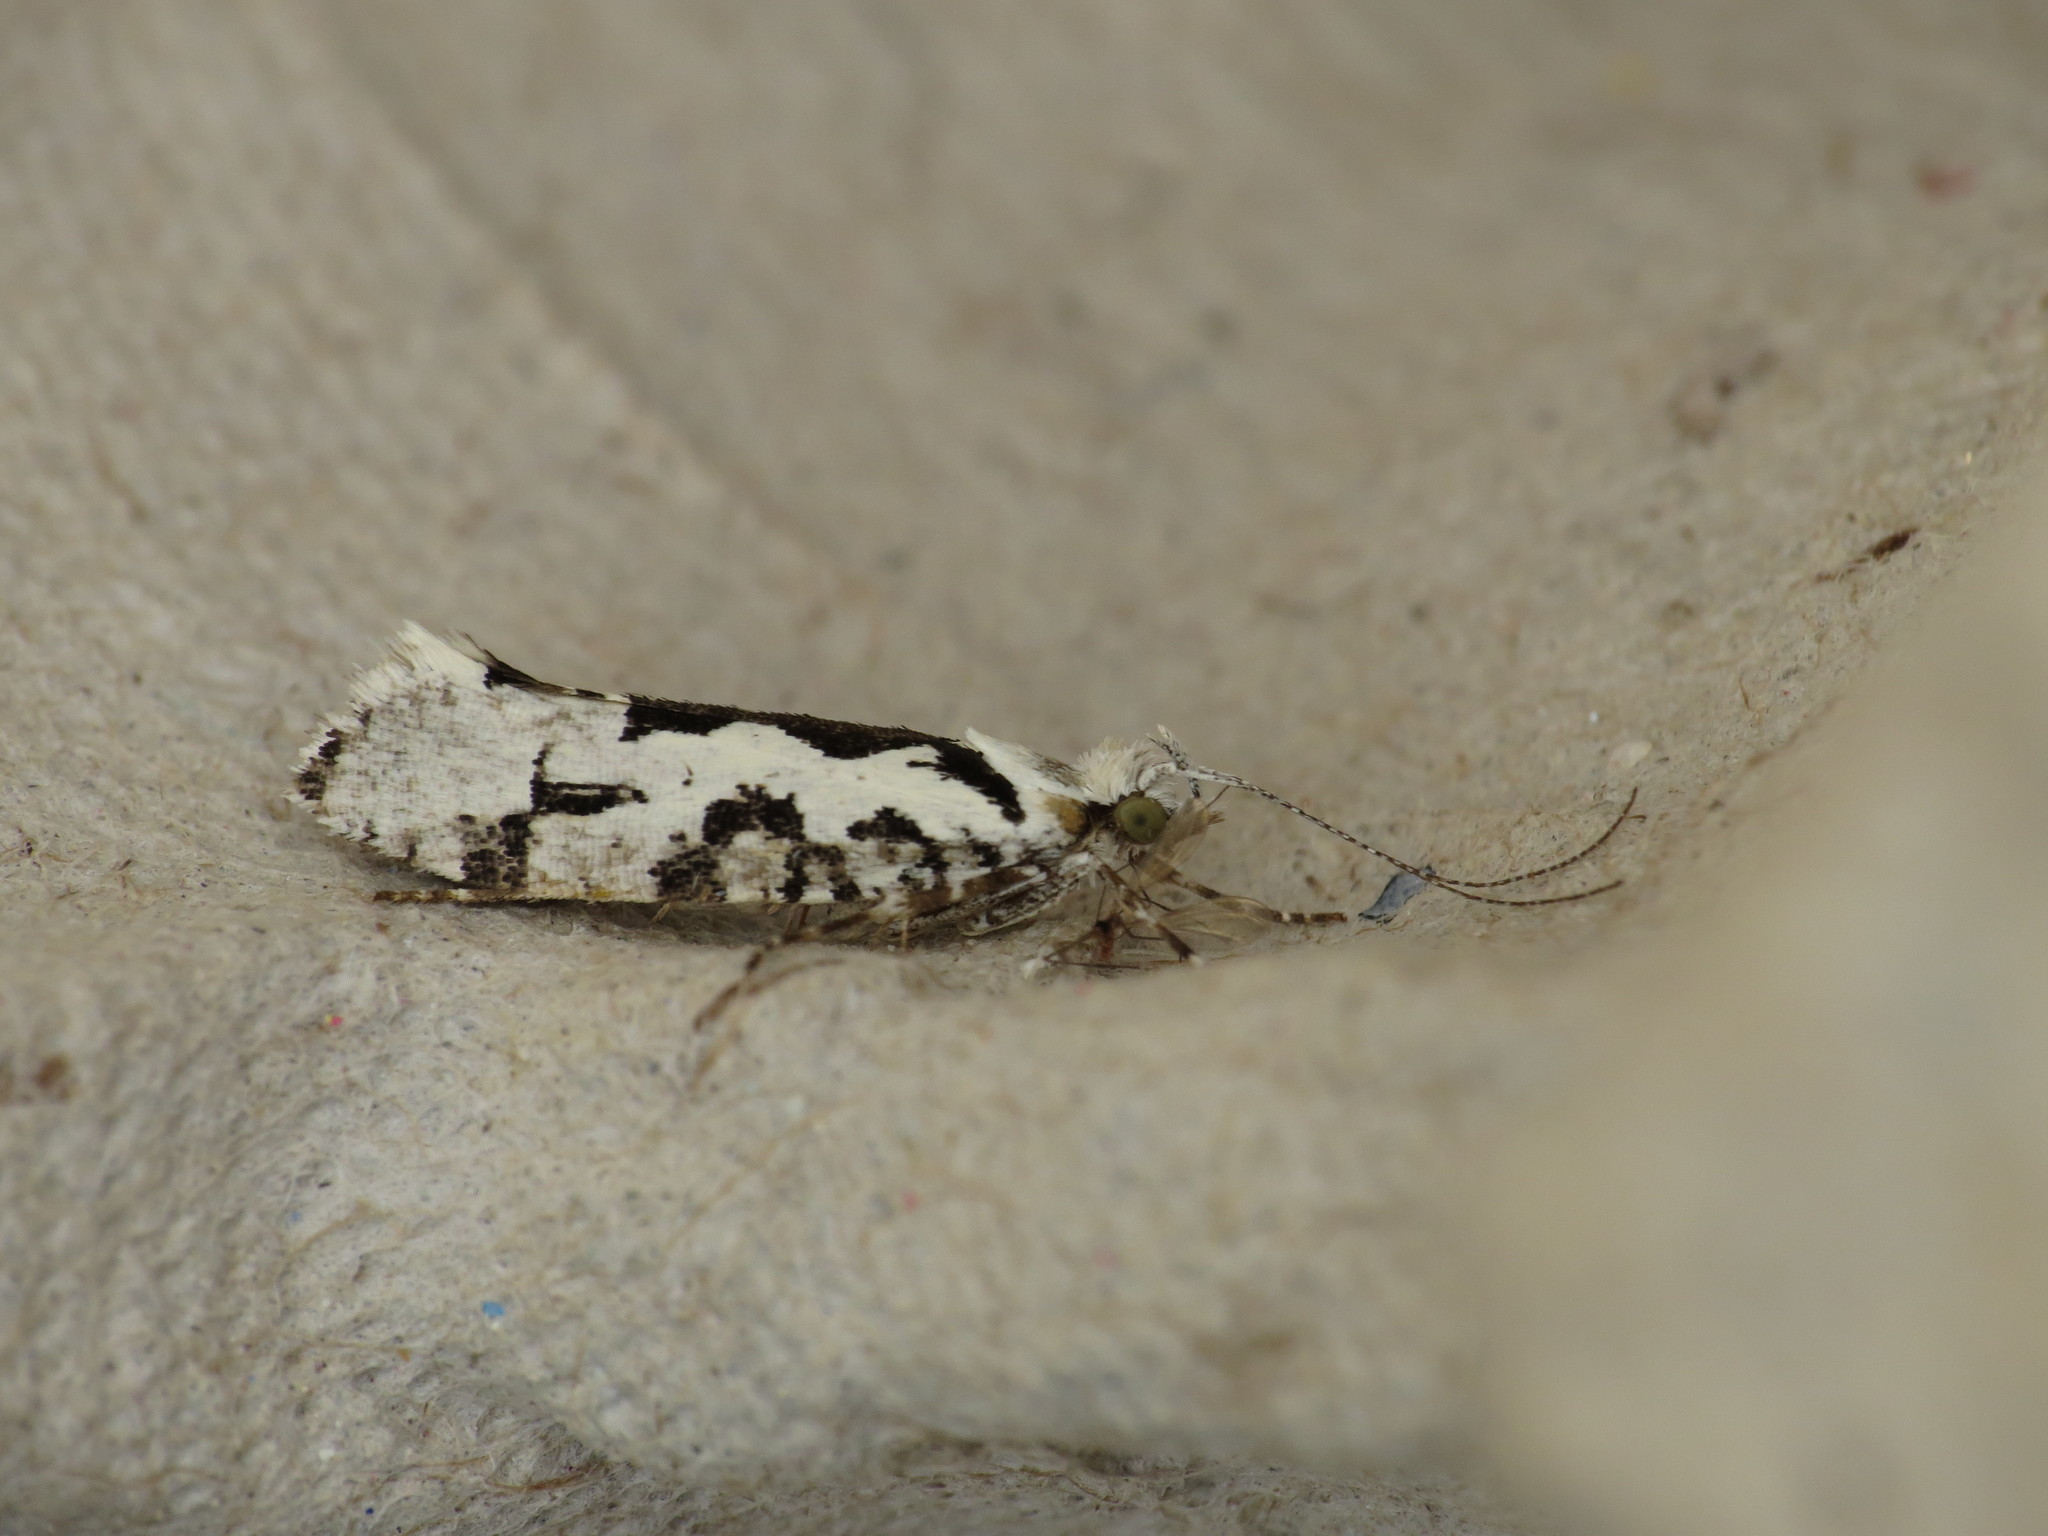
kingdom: Animalia
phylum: Arthropoda
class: Insecta
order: Lepidoptera
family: Plutellidae
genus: Ypsolophus
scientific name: Ypsolophus sequella
